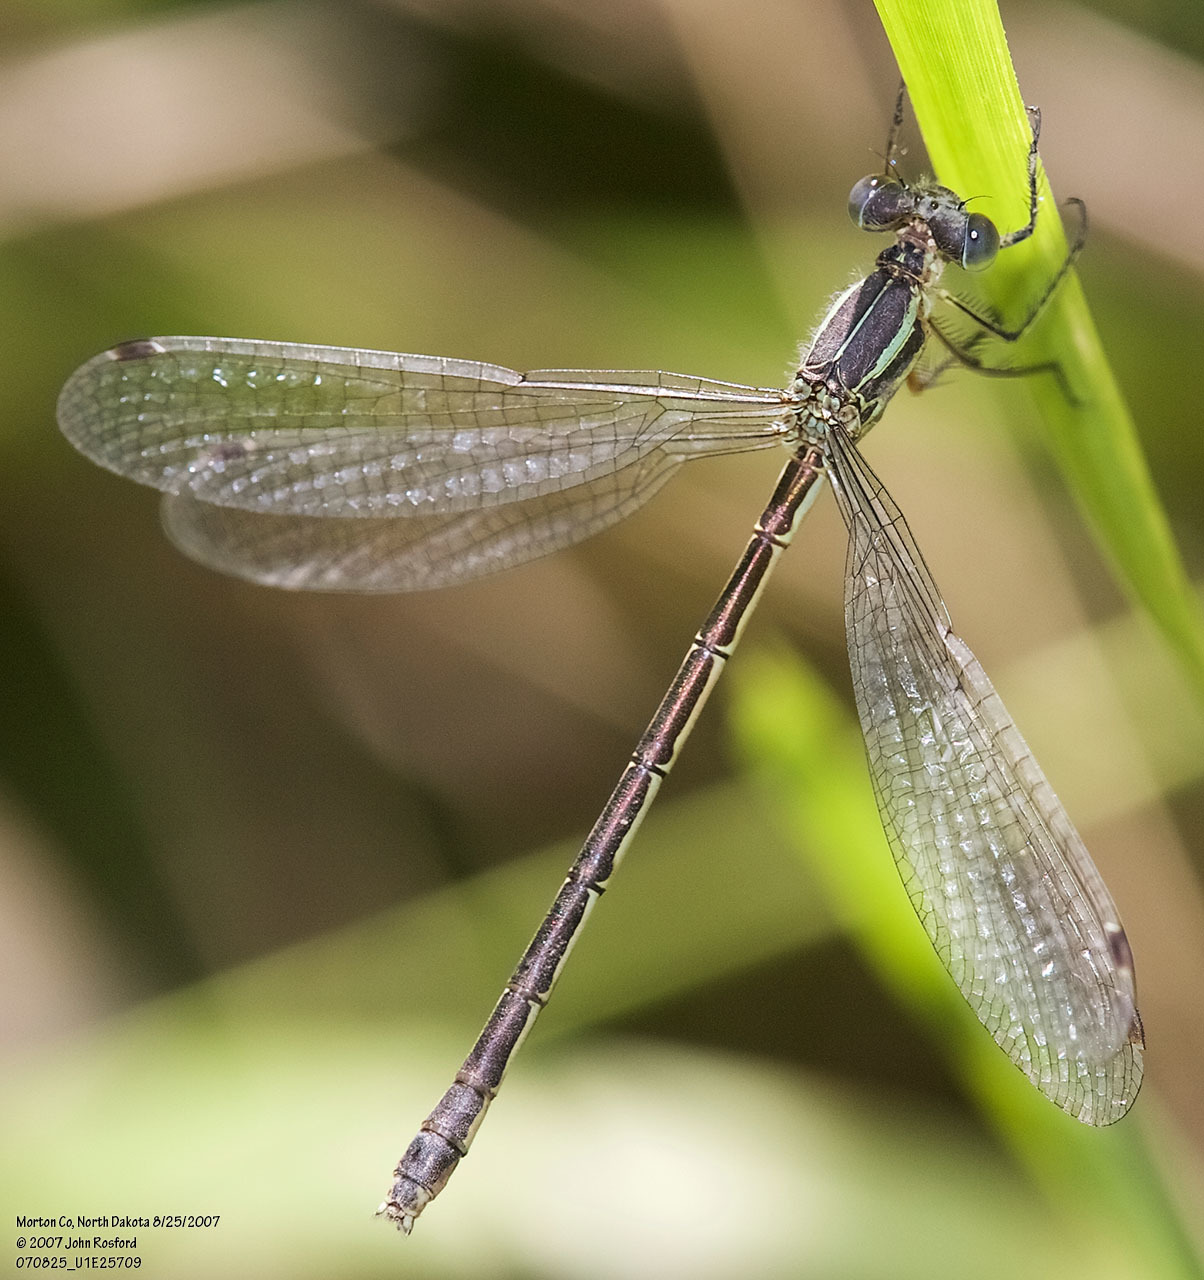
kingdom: Animalia
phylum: Arthropoda
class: Insecta
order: Odonata
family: Lestidae
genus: Lestes
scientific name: Lestes unguiculatus
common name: Lyre-tipped spreadwing
